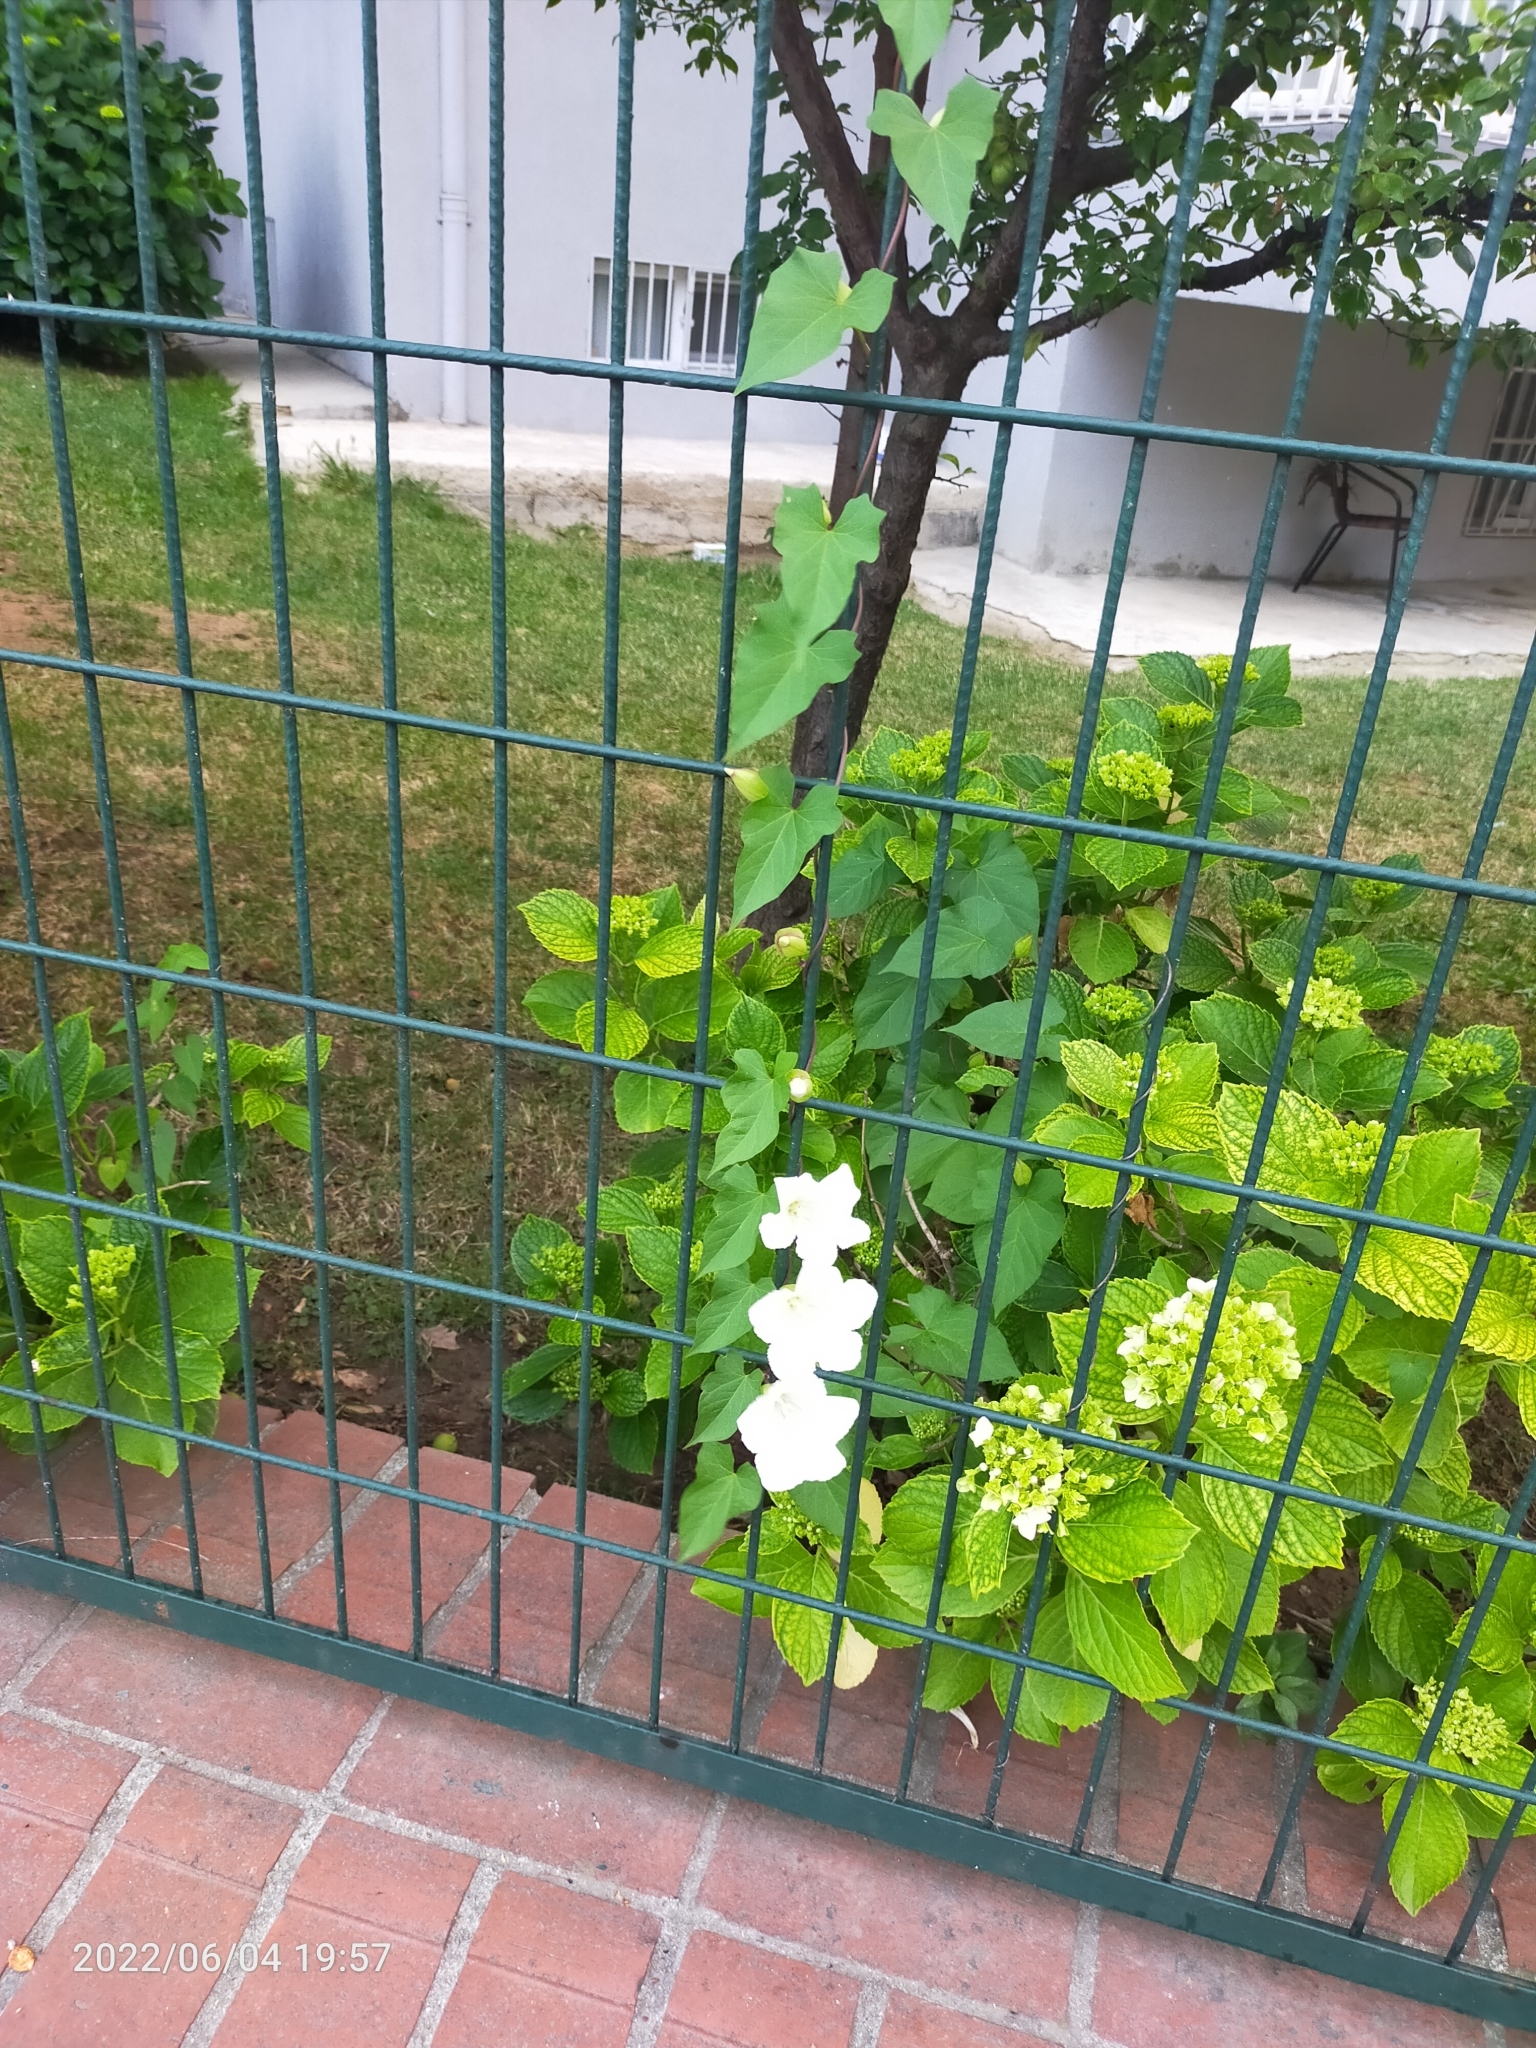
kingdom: Plantae
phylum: Tracheophyta
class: Magnoliopsida
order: Solanales
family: Convolvulaceae
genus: Calystegia
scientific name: Calystegia silvatica
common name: Large bindweed
